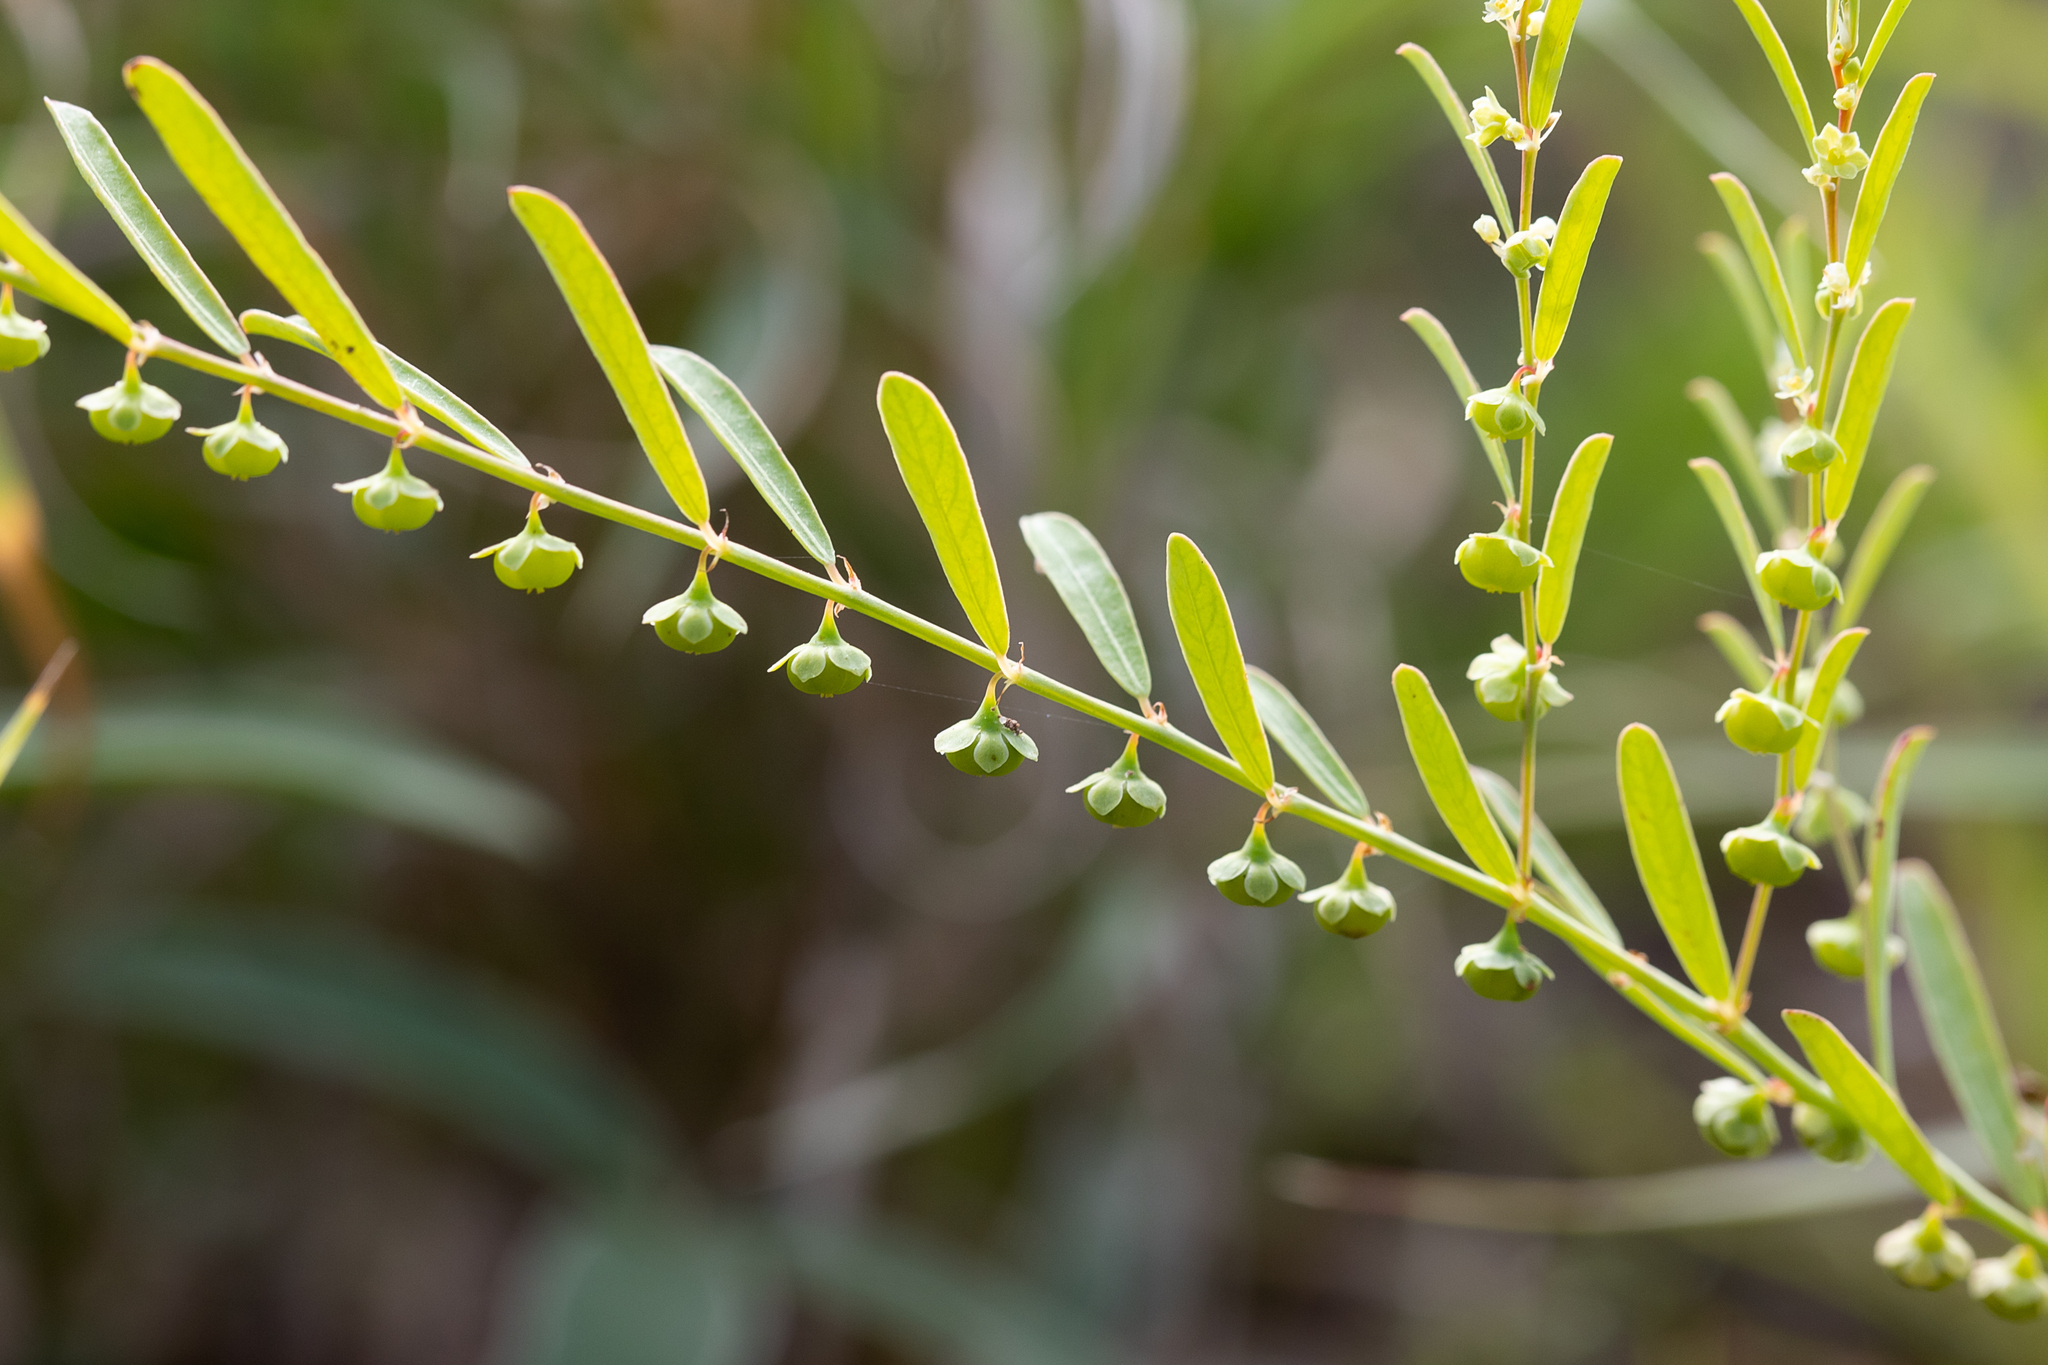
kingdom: Plantae
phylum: Tracheophyta
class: Magnoliopsida
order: Malpighiales
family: Phyllanthaceae
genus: Phyllanthus
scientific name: Phyllanthus maderaspatensis
